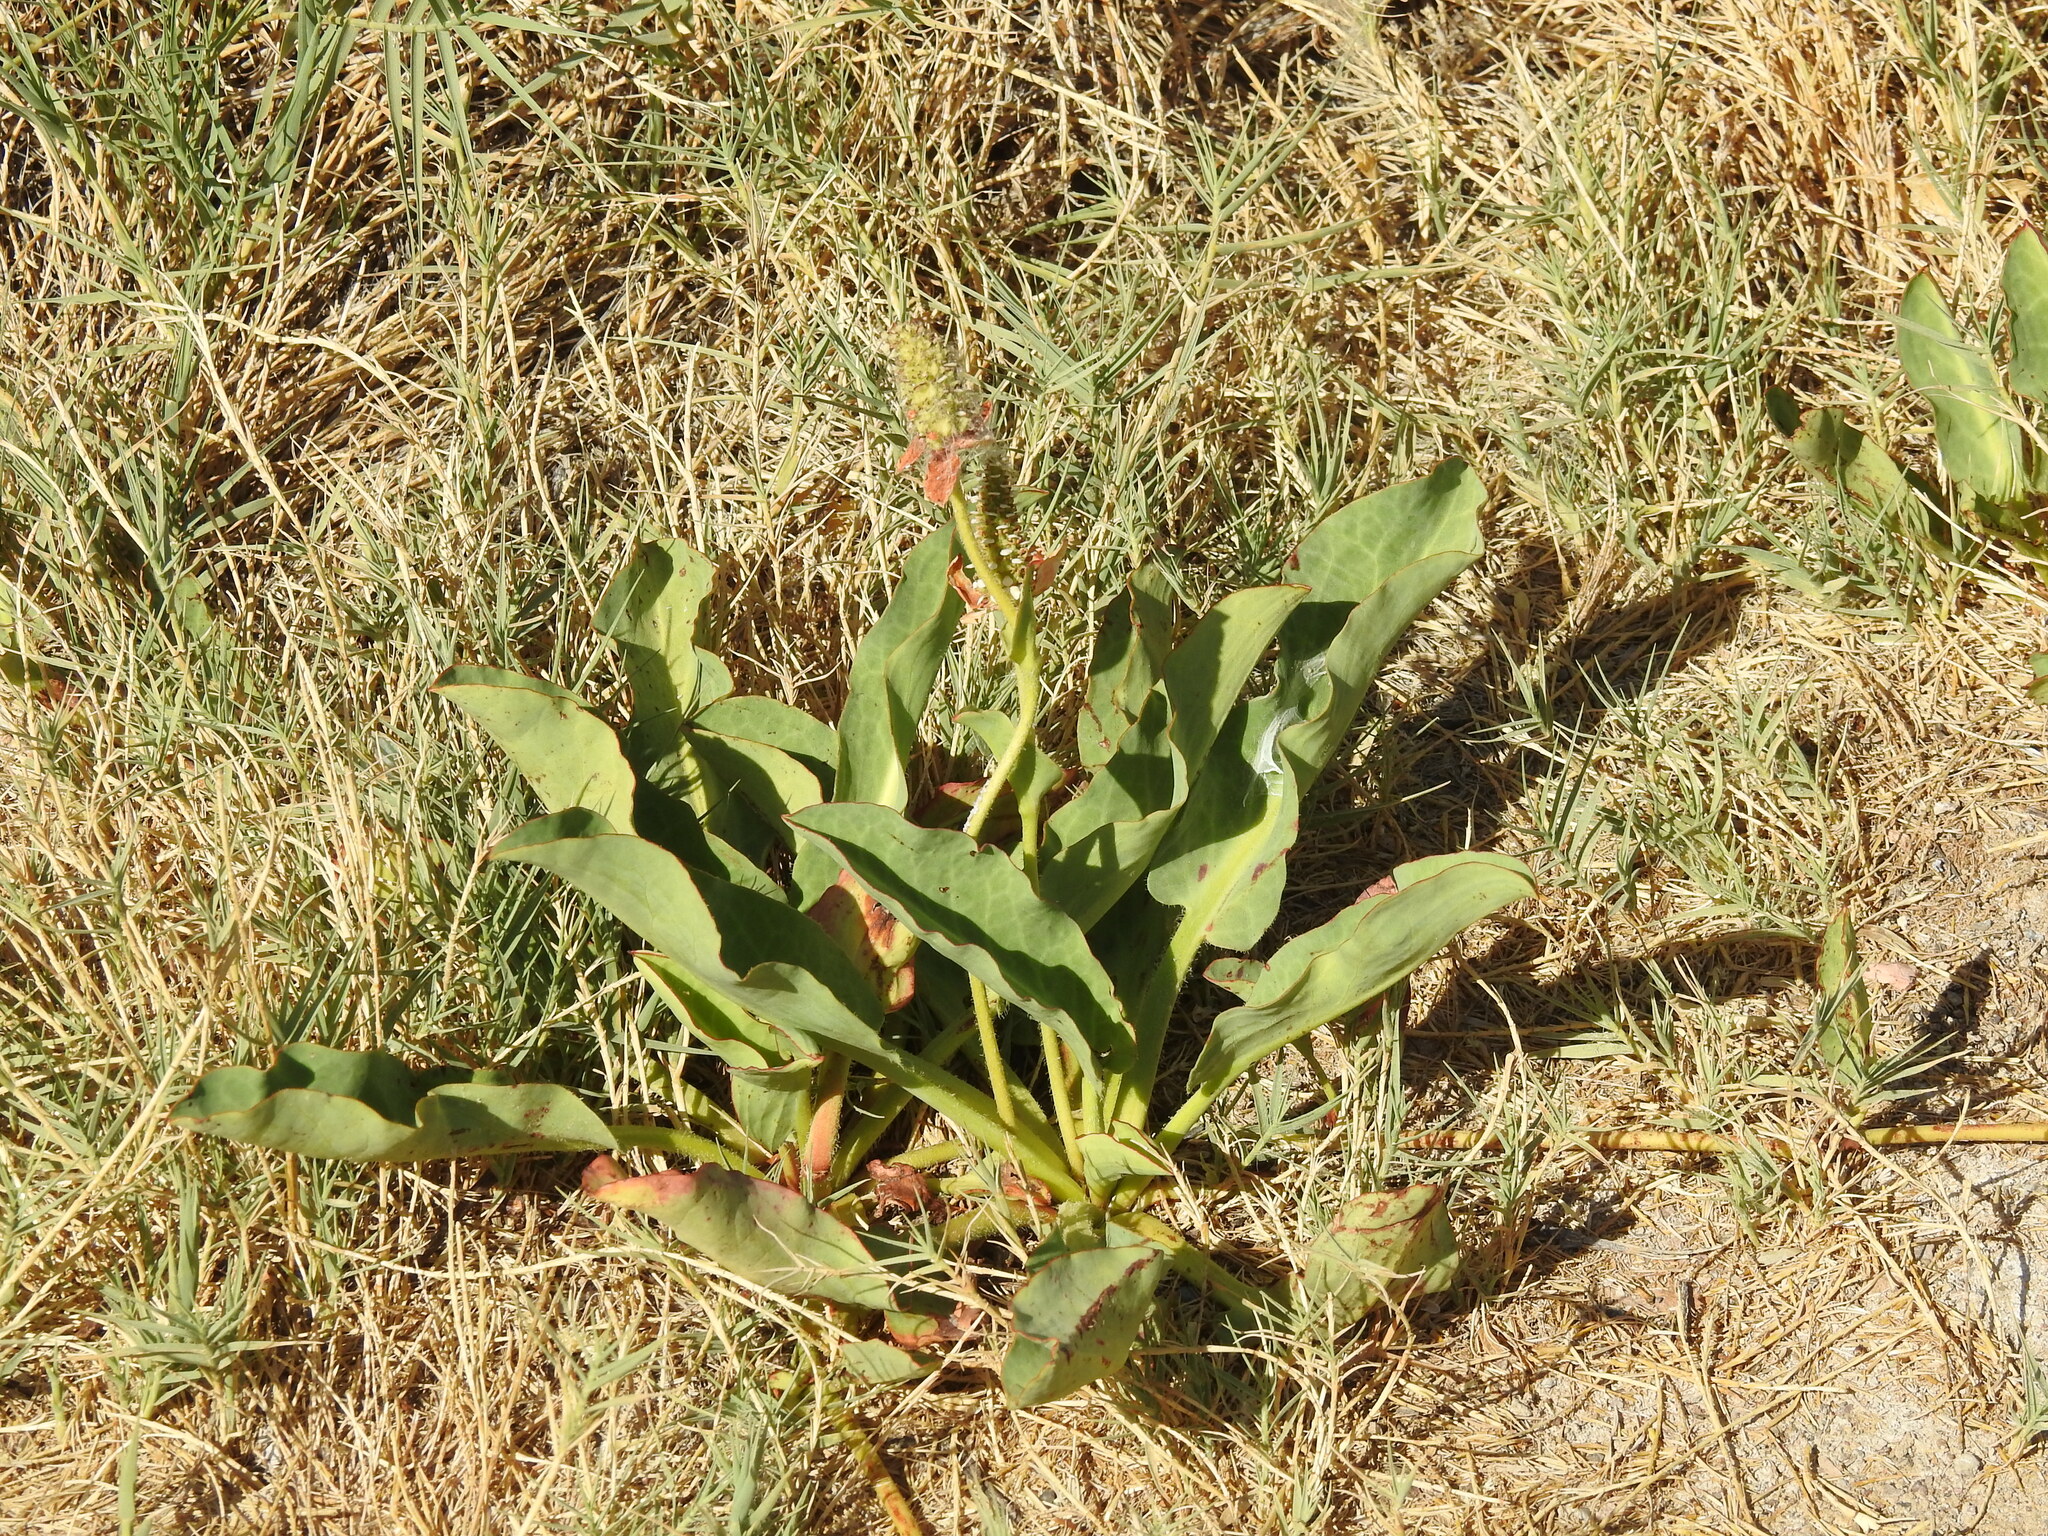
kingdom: Plantae
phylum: Tracheophyta
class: Magnoliopsida
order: Piperales
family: Saururaceae
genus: Anemopsis
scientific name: Anemopsis californica
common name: Apache-beads
